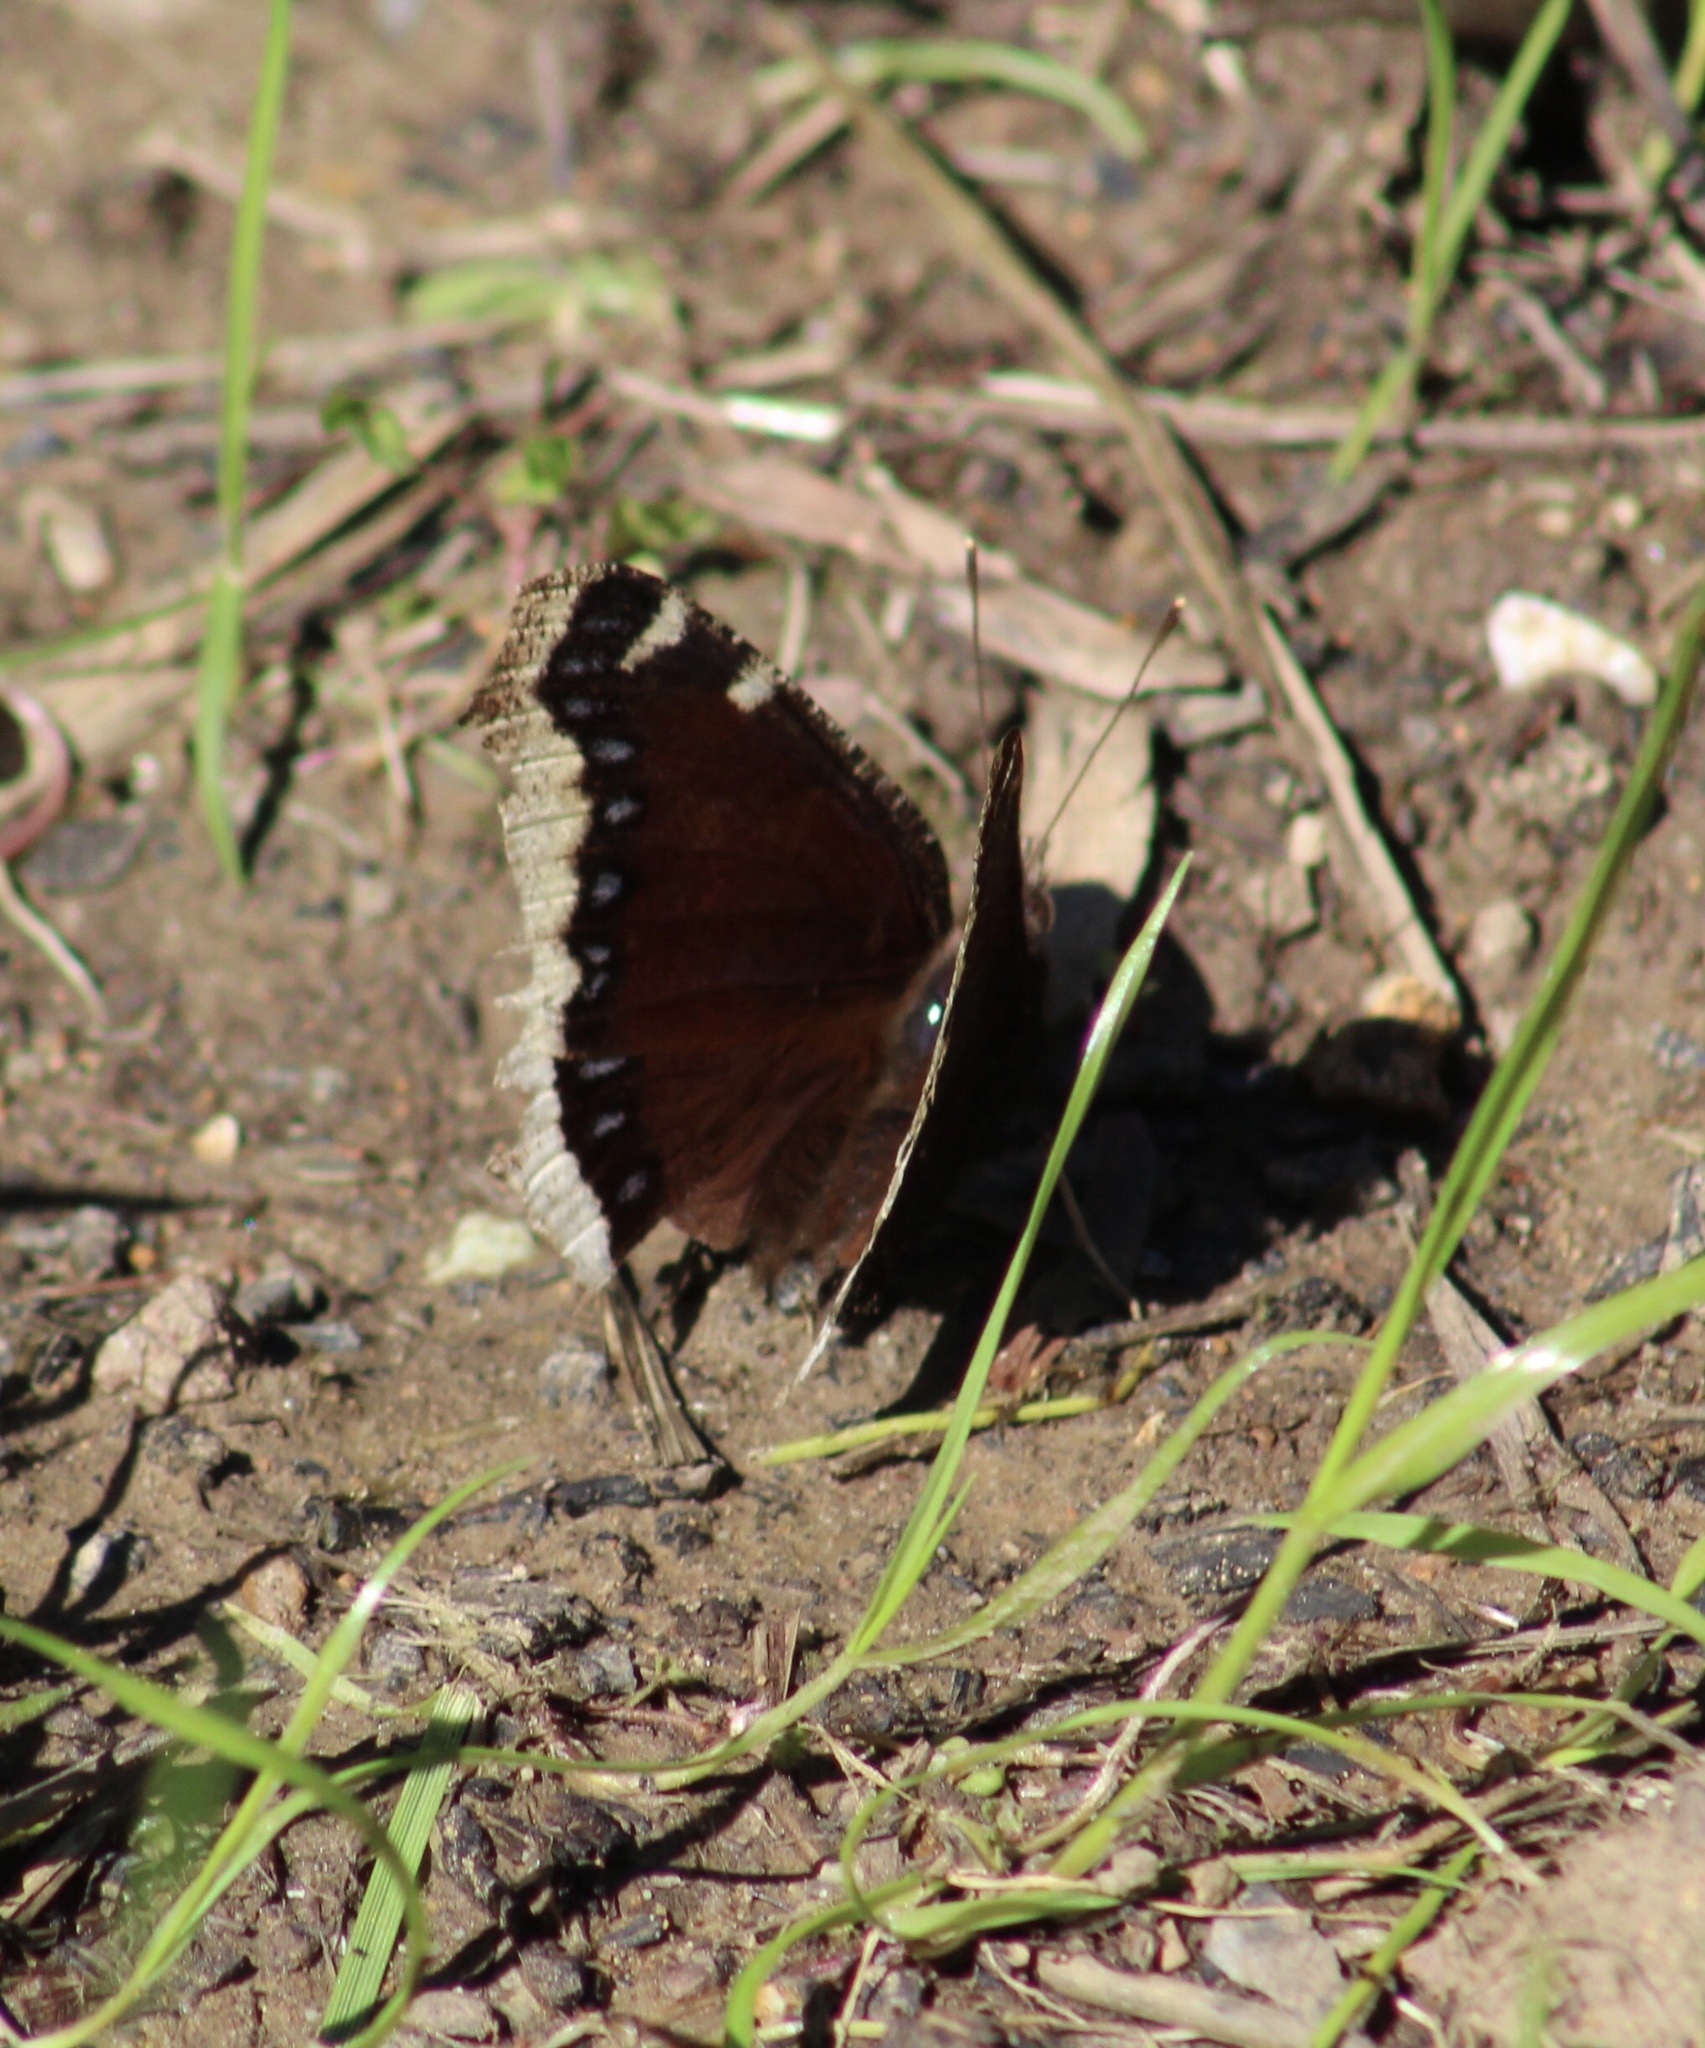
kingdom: Animalia
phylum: Arthropoda
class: Insecta
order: Lepidoptera
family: Nymphalidae
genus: Nymphalis
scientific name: Nymphalis antiopa
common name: Camberwell beauty
